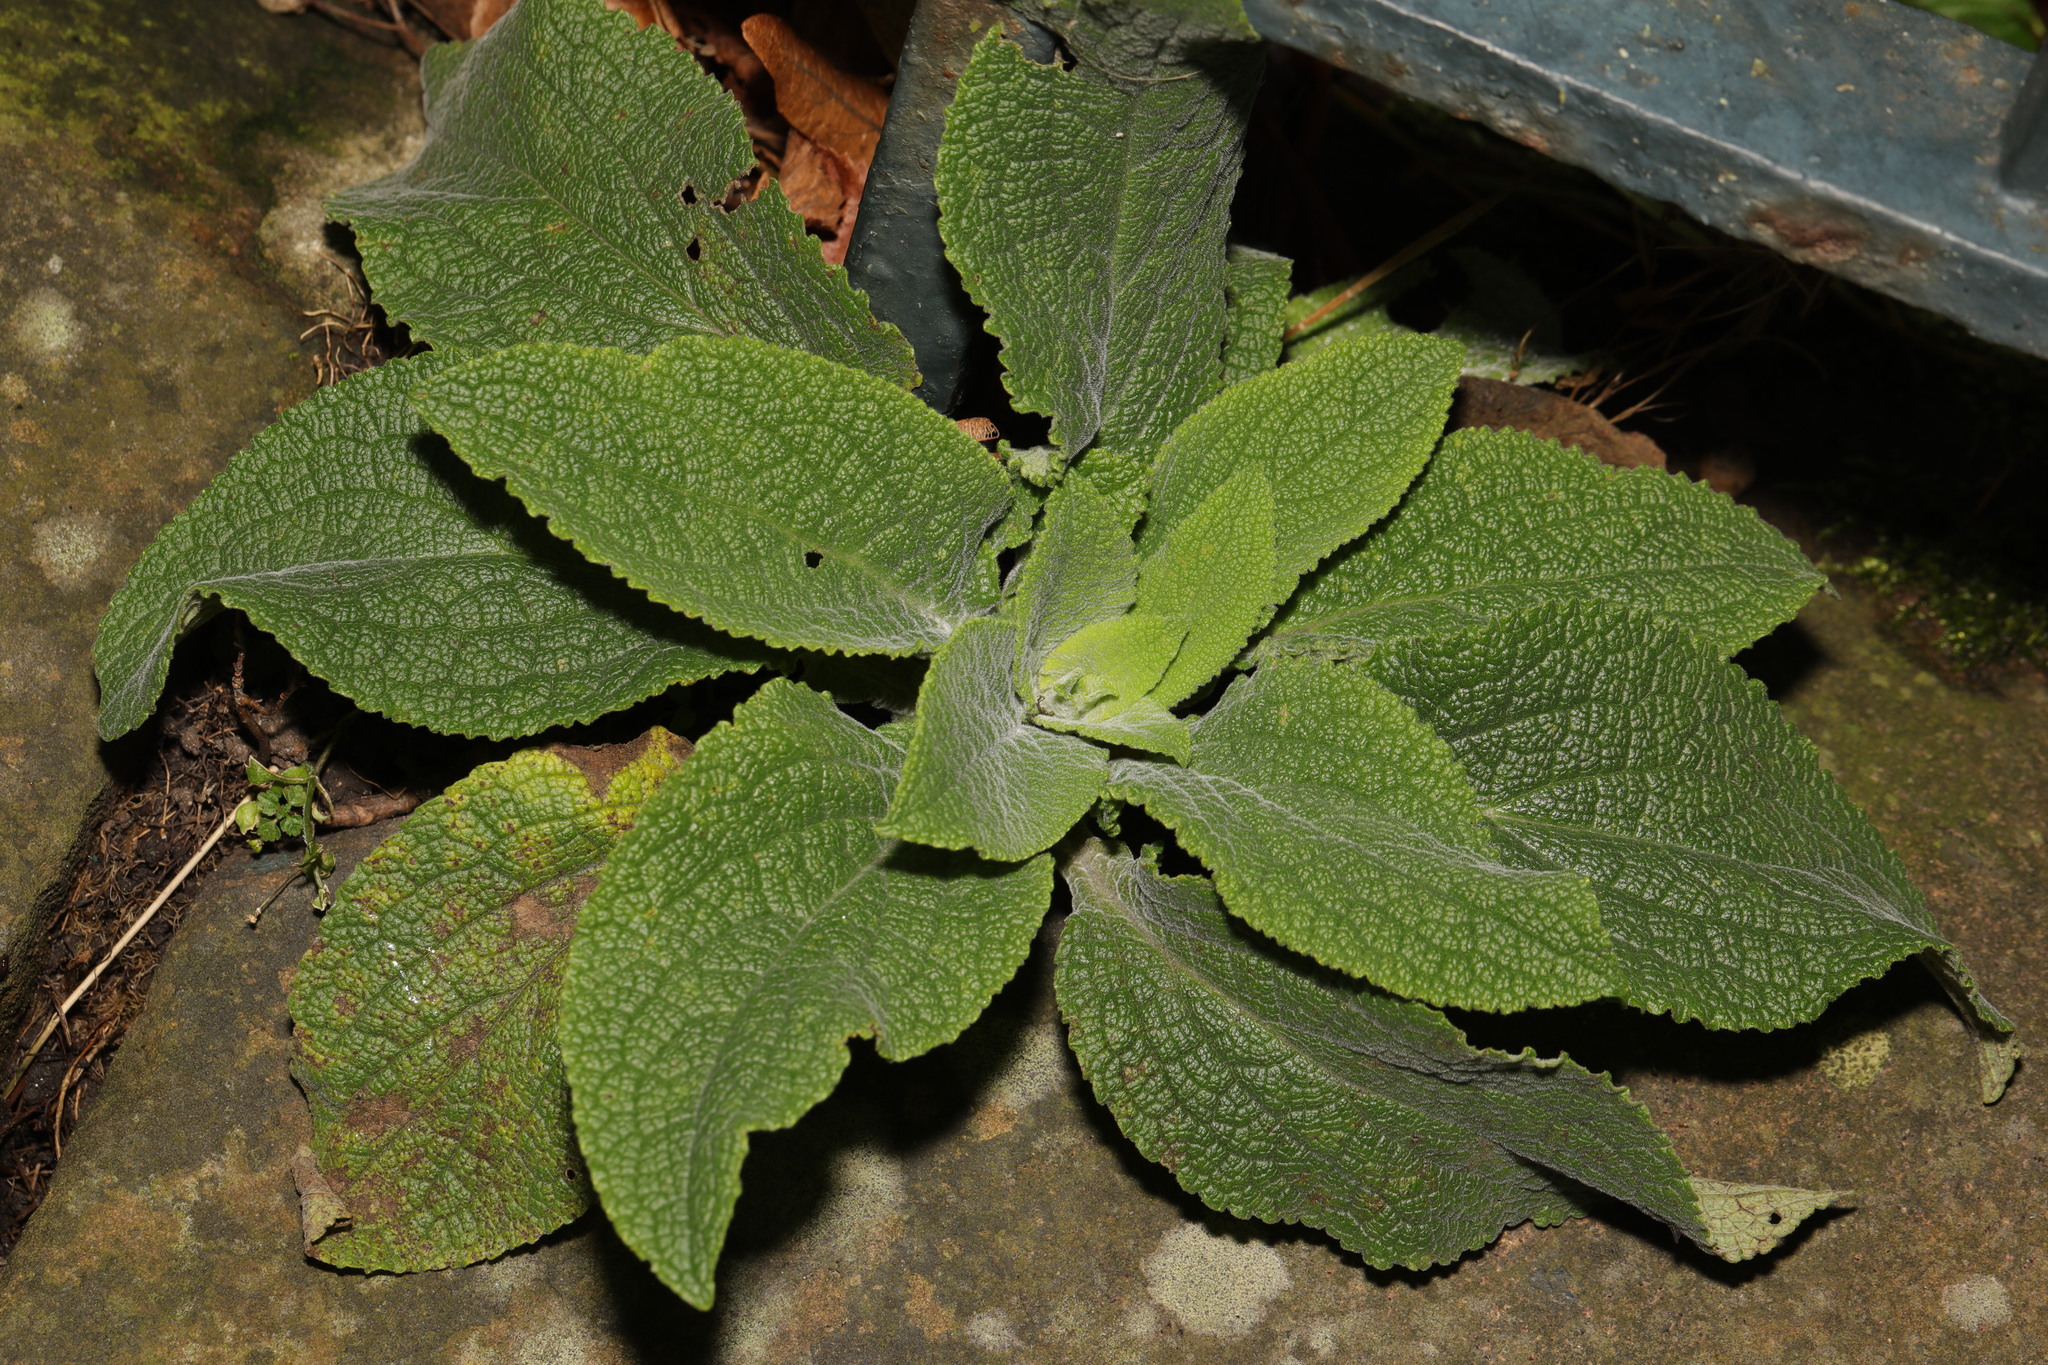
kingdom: Plantae
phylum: Tracheophyta
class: Magnoliopsida
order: Lamiales
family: Plantaginaceae
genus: Digitalis
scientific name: Digitalis purpurea
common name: Foxglove
